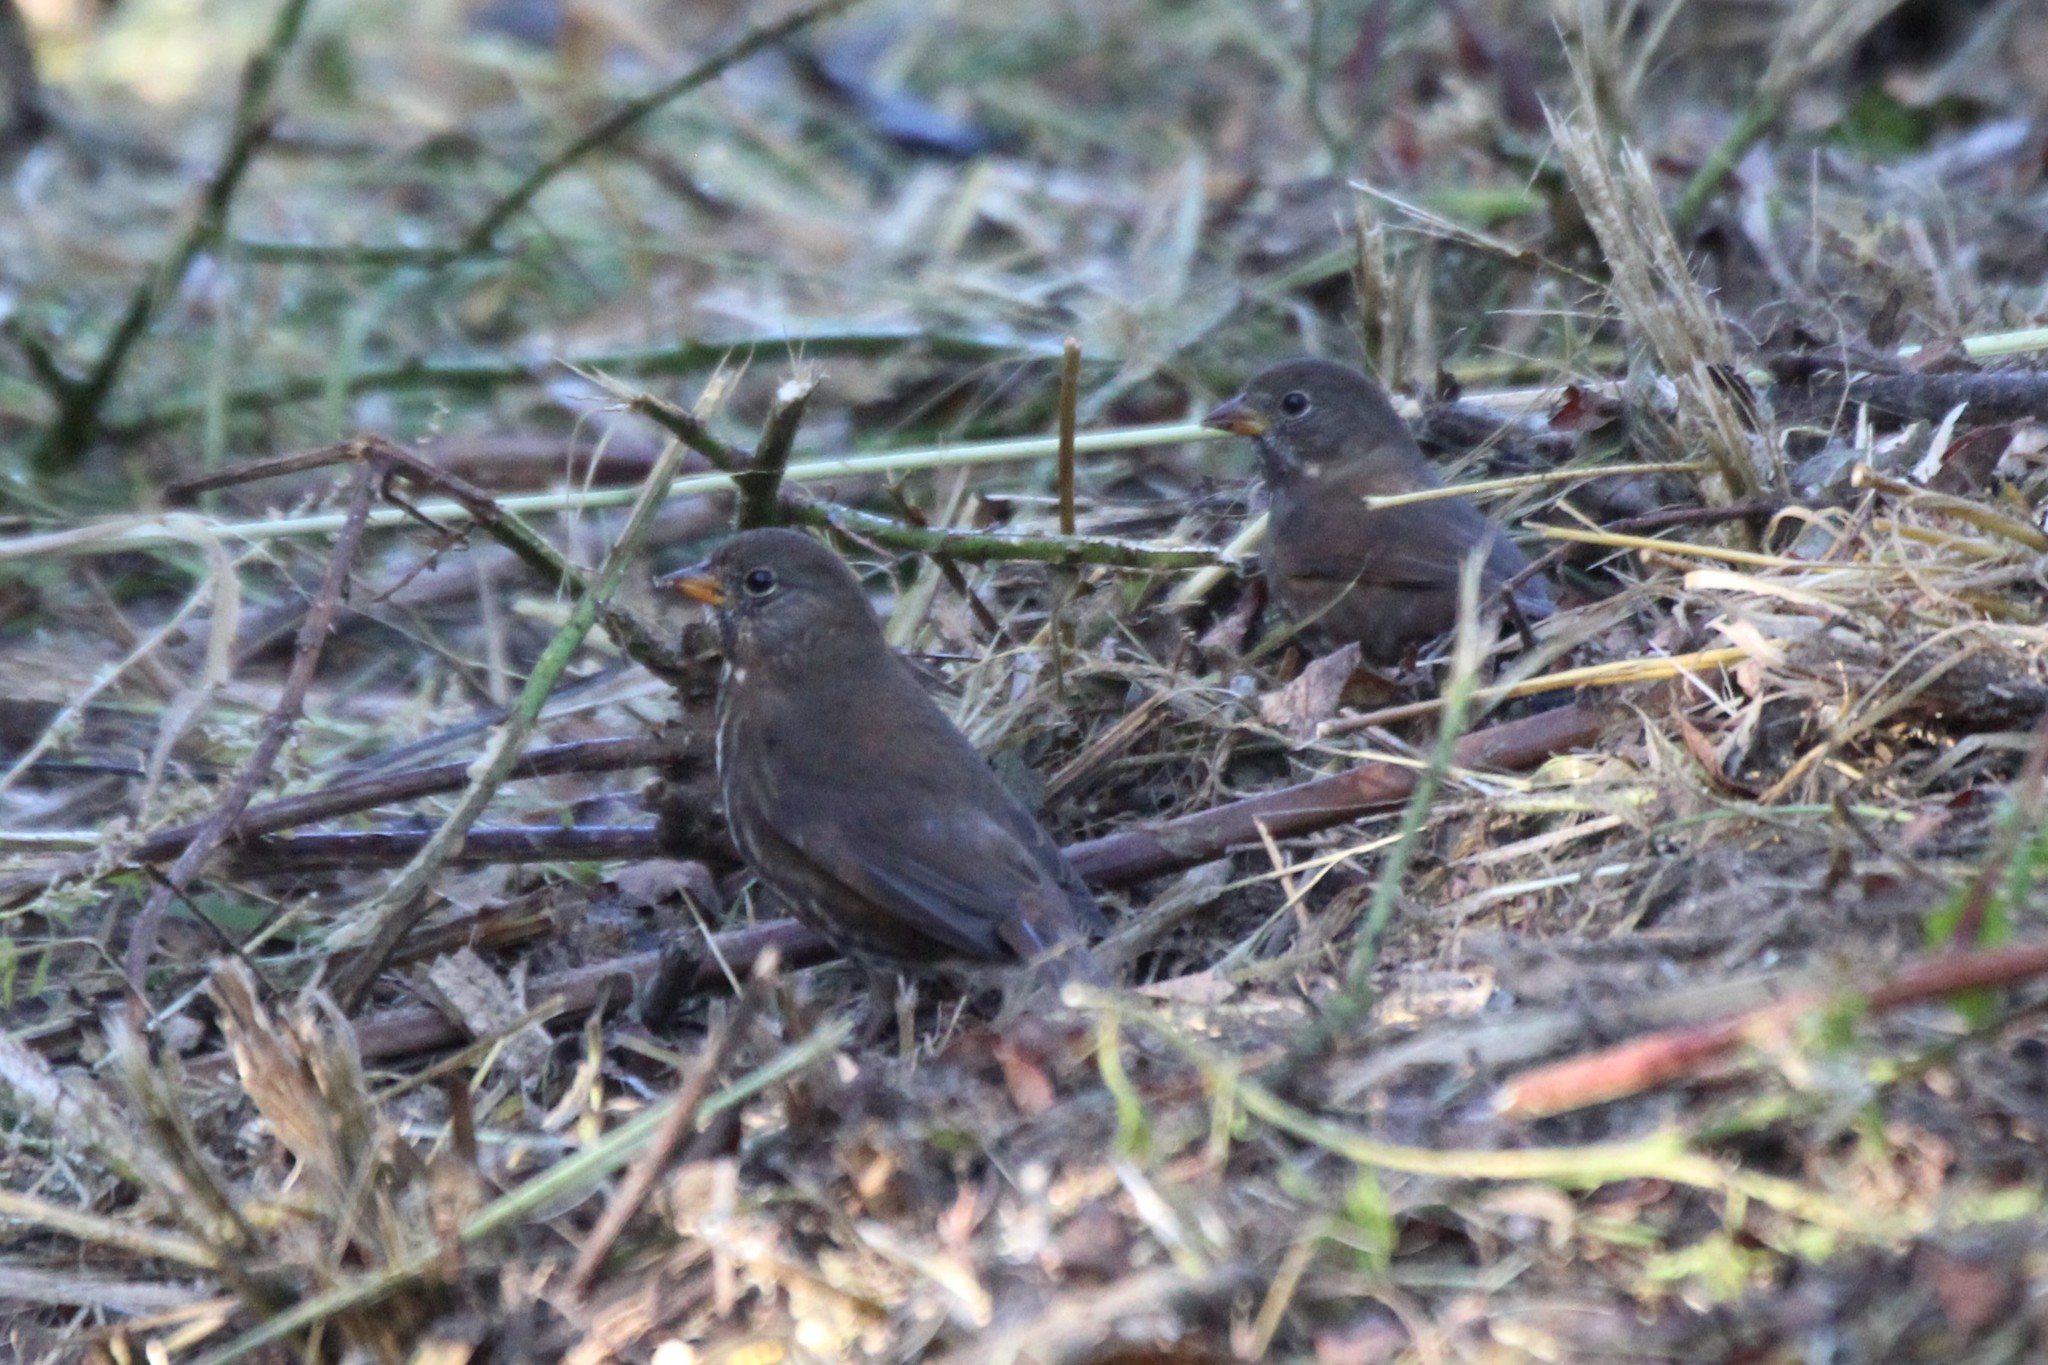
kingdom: Animalia
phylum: Chordata
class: Aves
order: Passeriformes
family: Passerellidae
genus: Passerella
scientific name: Passerella iliaca
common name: Fox sparrow
